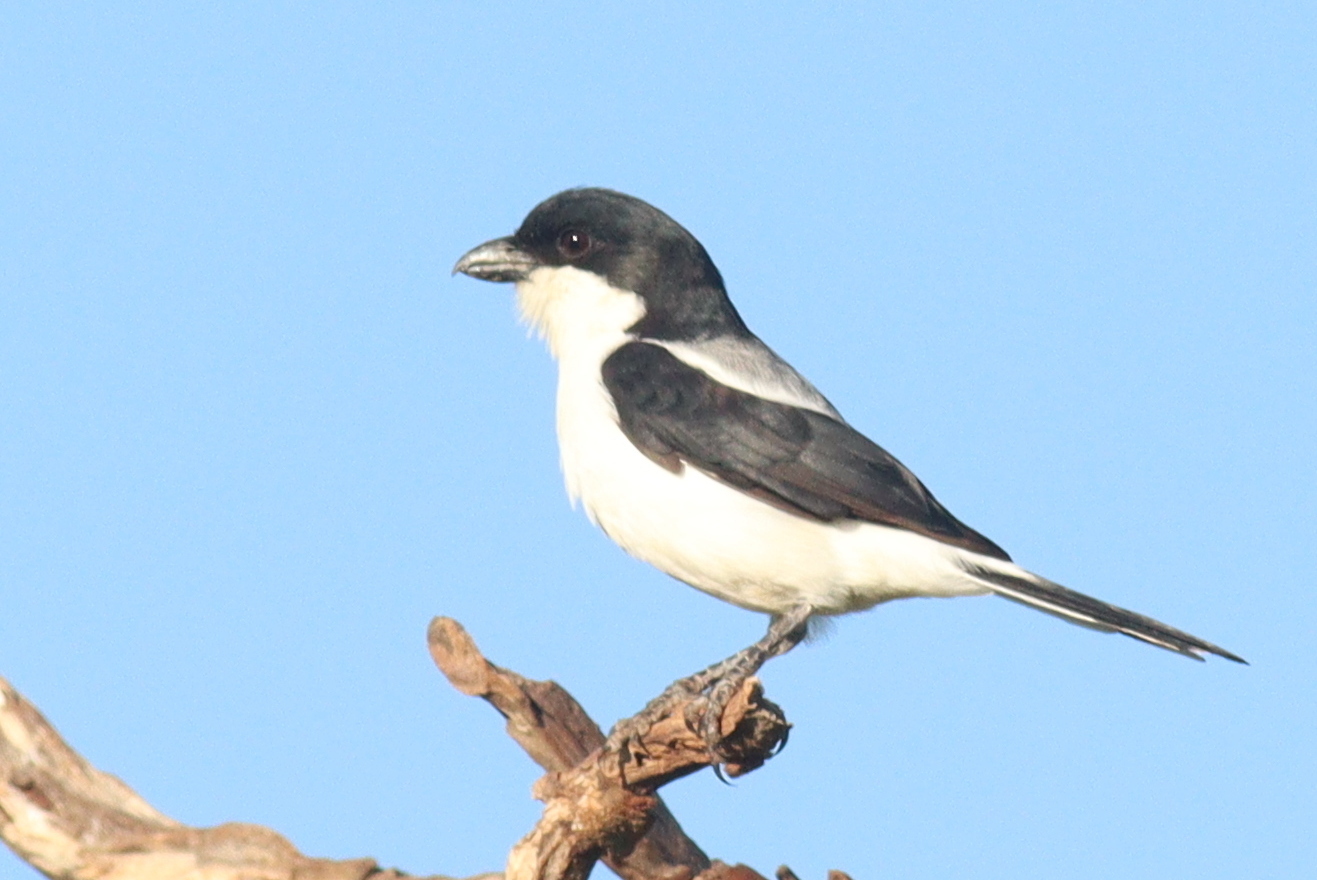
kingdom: Animalia
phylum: Chordata
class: Aves
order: Passeriformes
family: Laniidae
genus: Lanius
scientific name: Lanius dorsalis
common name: Taita fiscal
